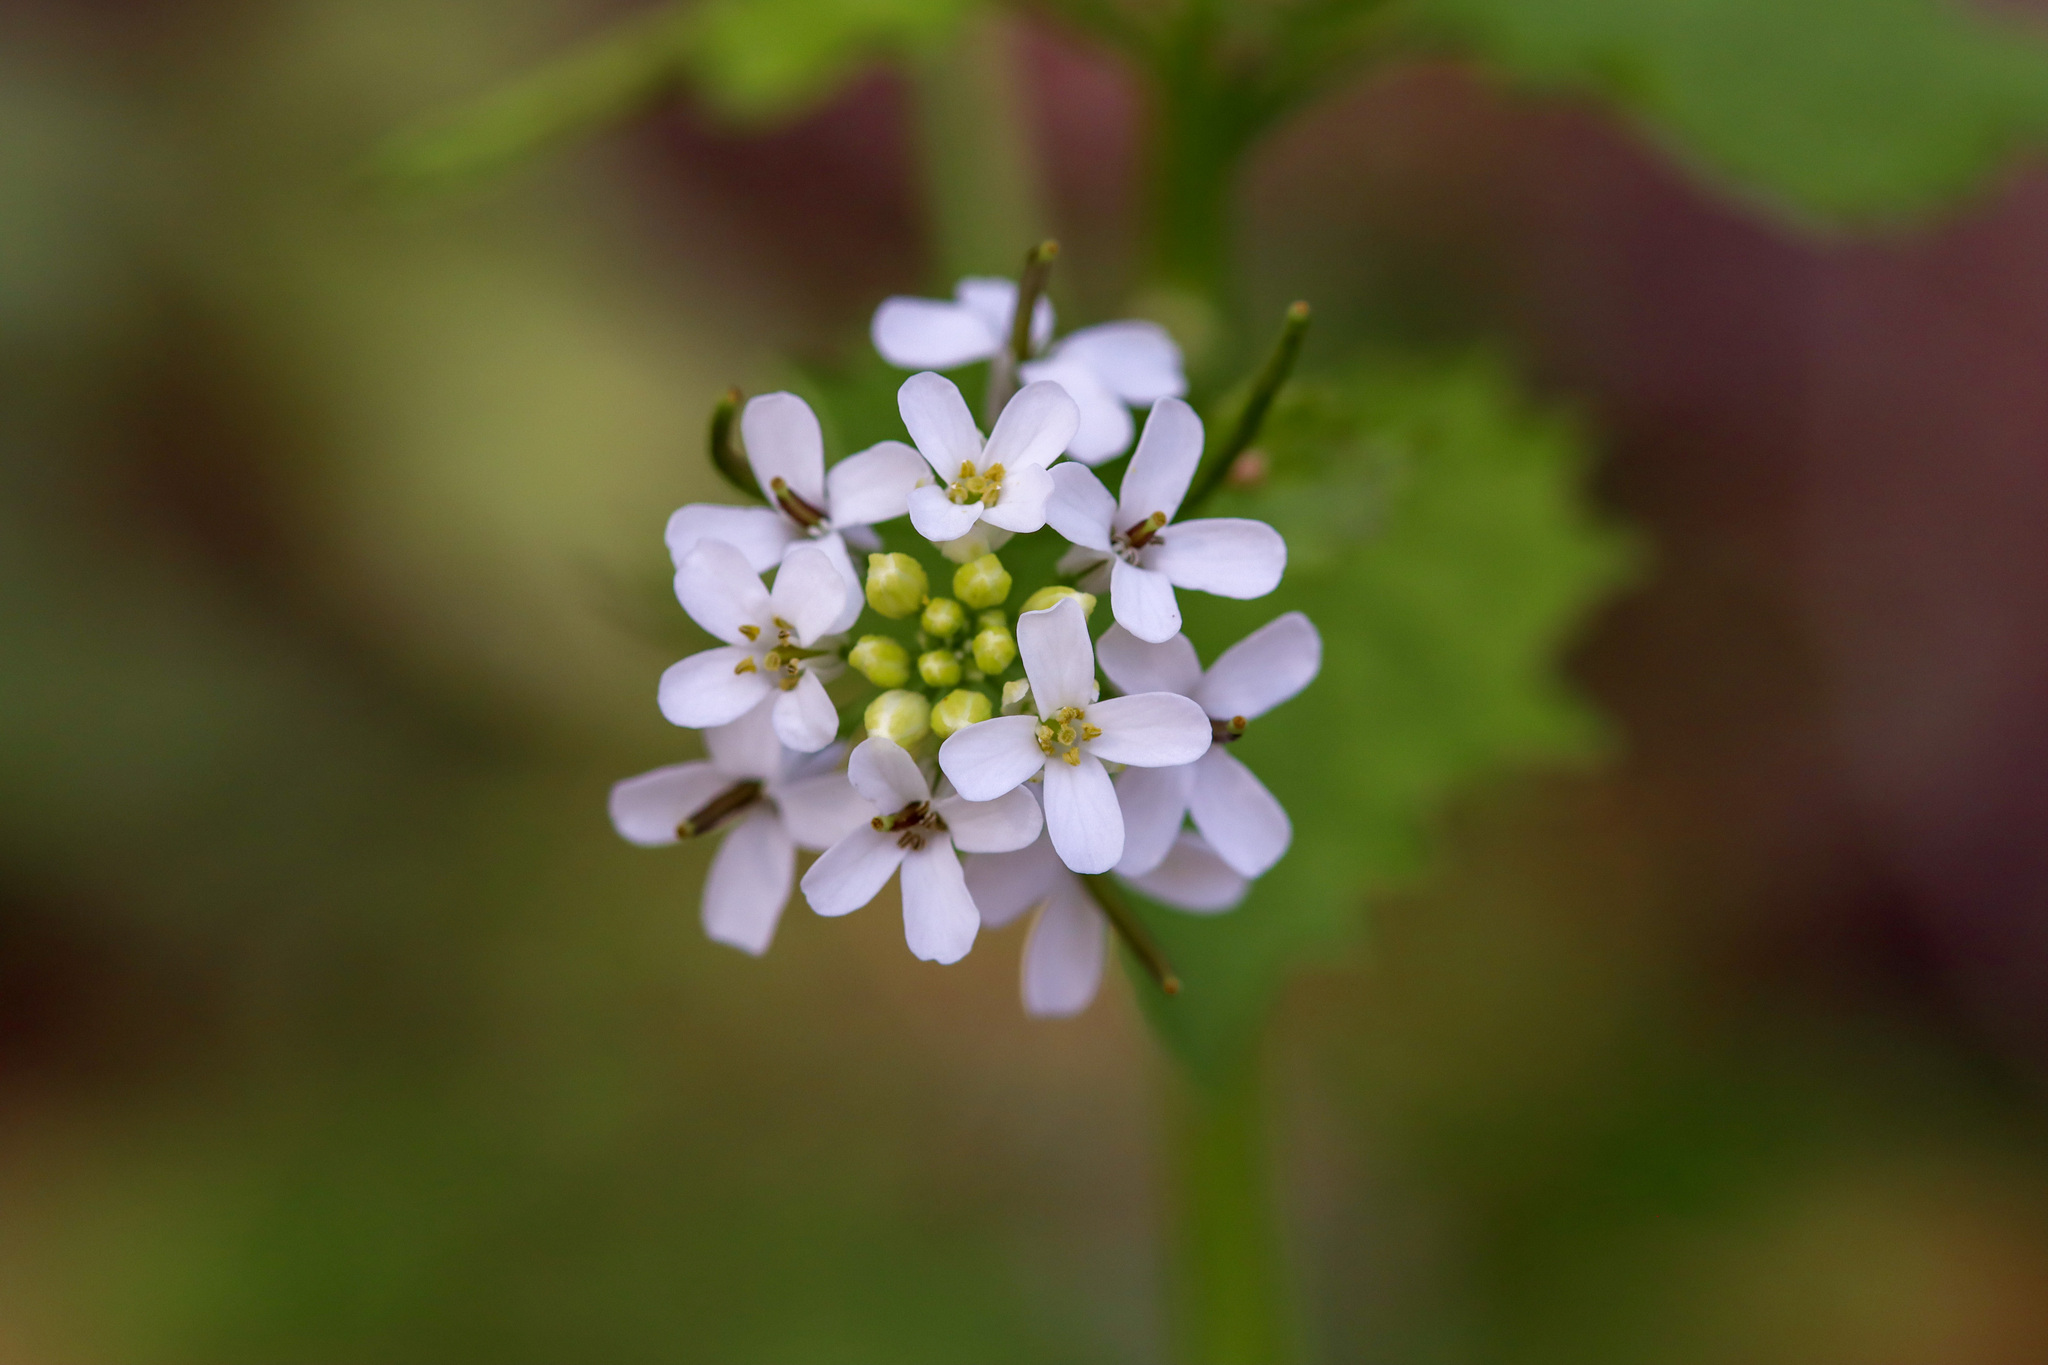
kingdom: Plantae
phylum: Tracheophyta
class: Magnoliopsida
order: Brassicales
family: Brassicaceae
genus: Alliaria
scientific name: Alliaria petiolata
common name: Garlic mustard
